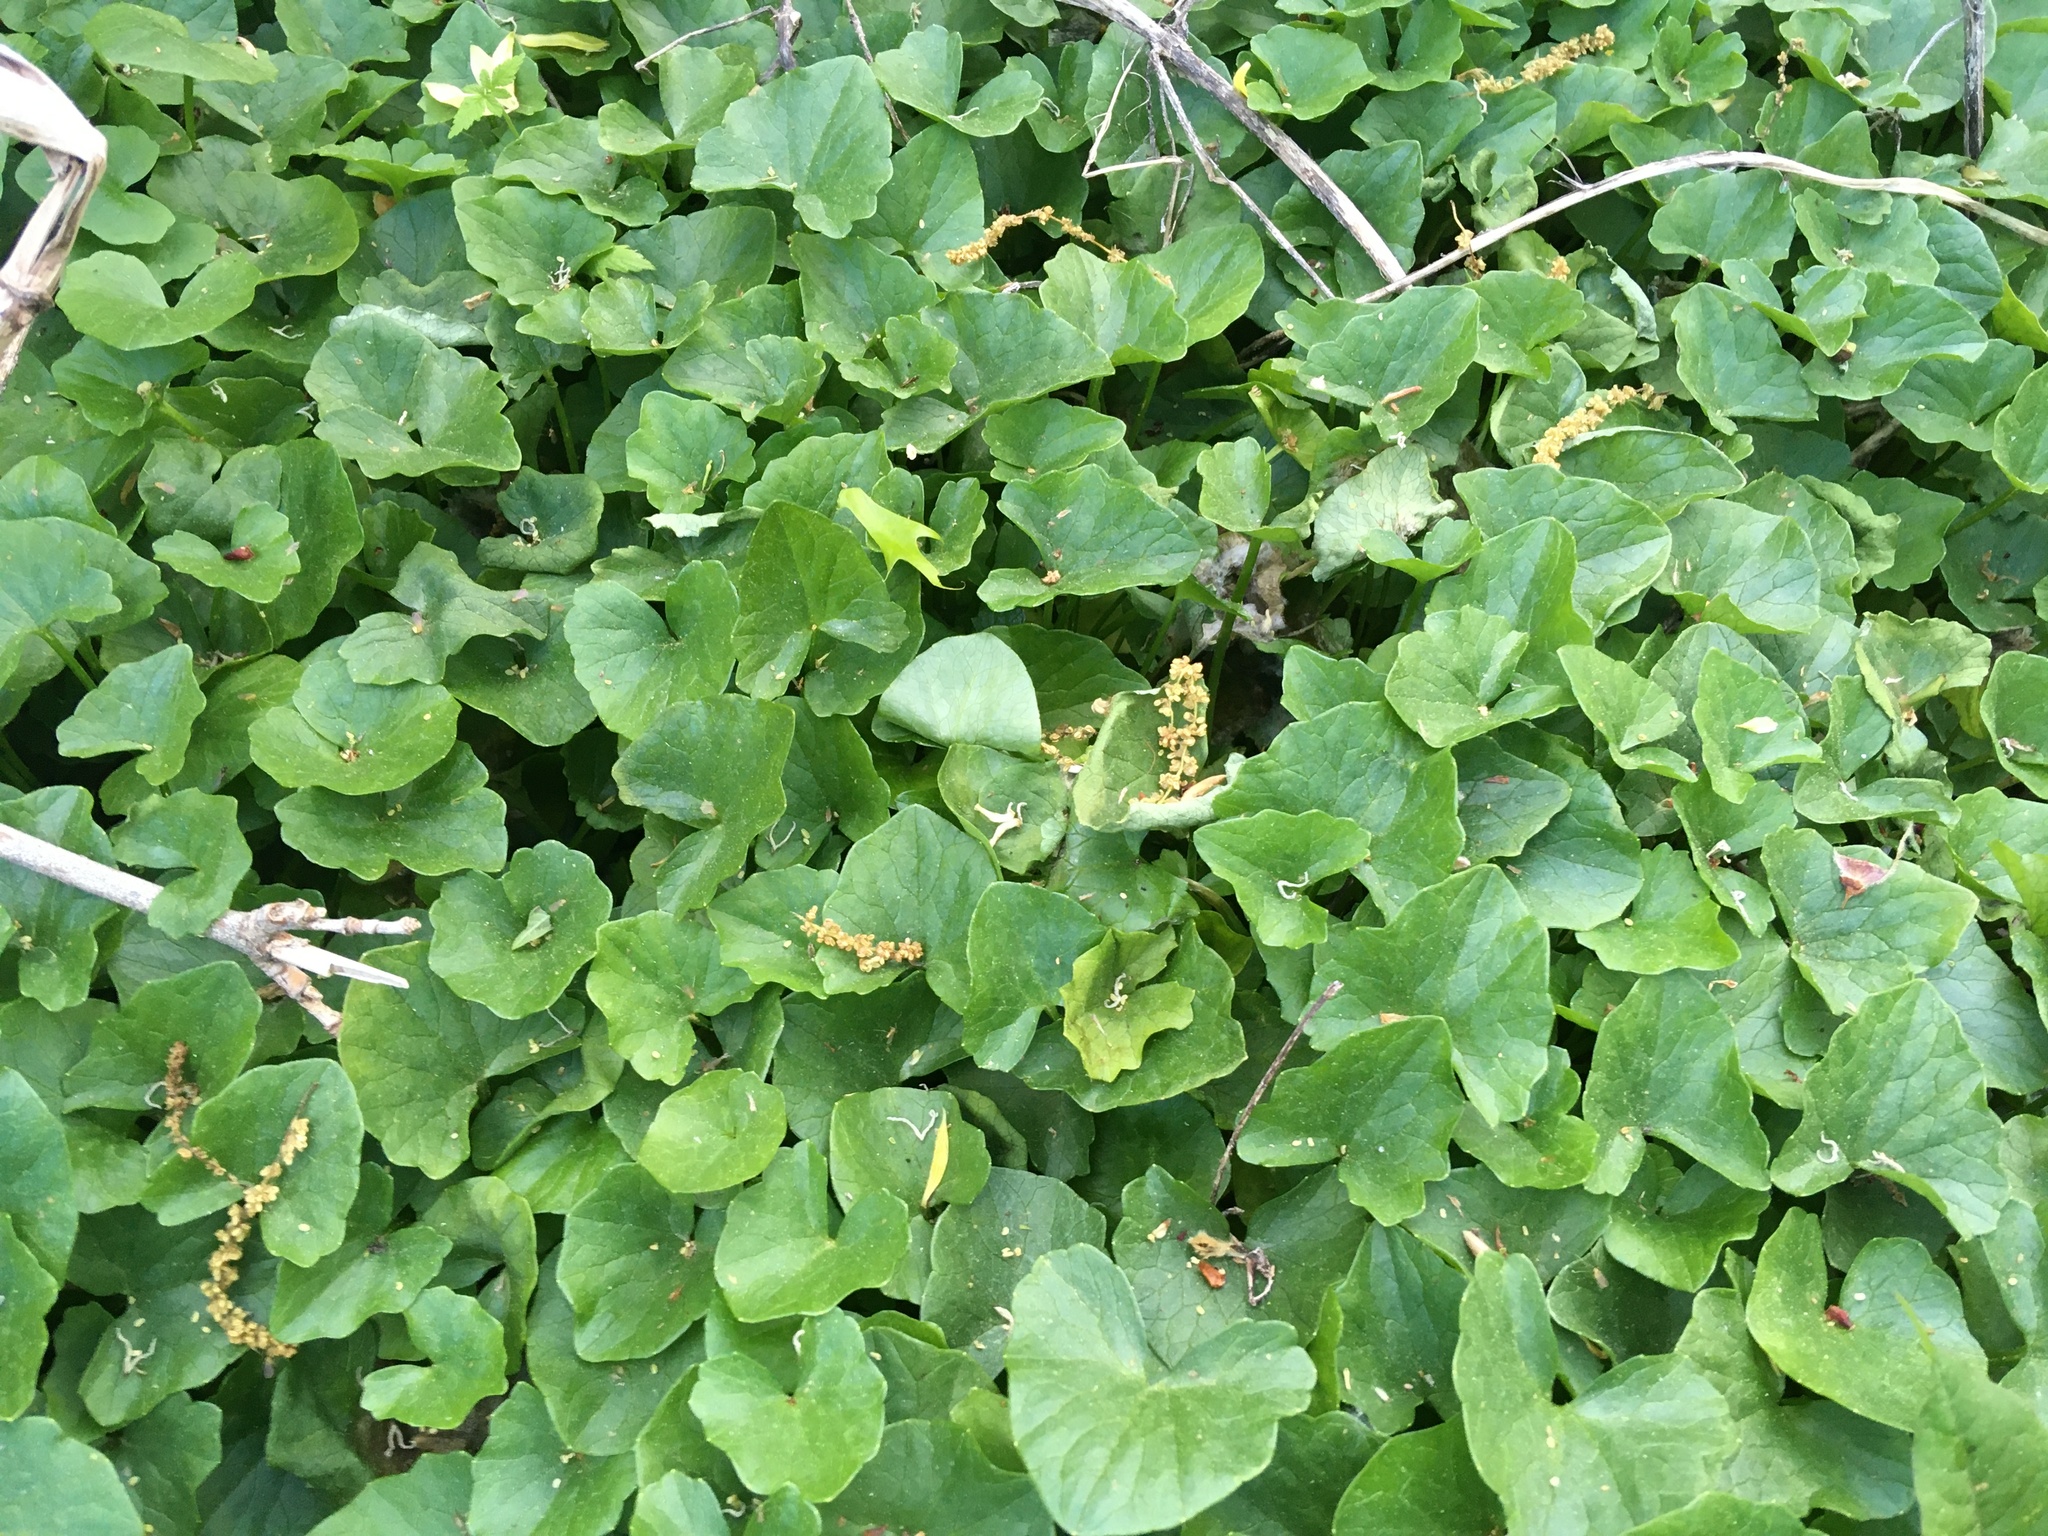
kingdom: Plantae
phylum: Tracheophyta
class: Magnoliopsida
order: Ranunculales
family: Ranunculaceae
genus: Ficaria
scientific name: Ficaria verna
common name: Lesser celandine
